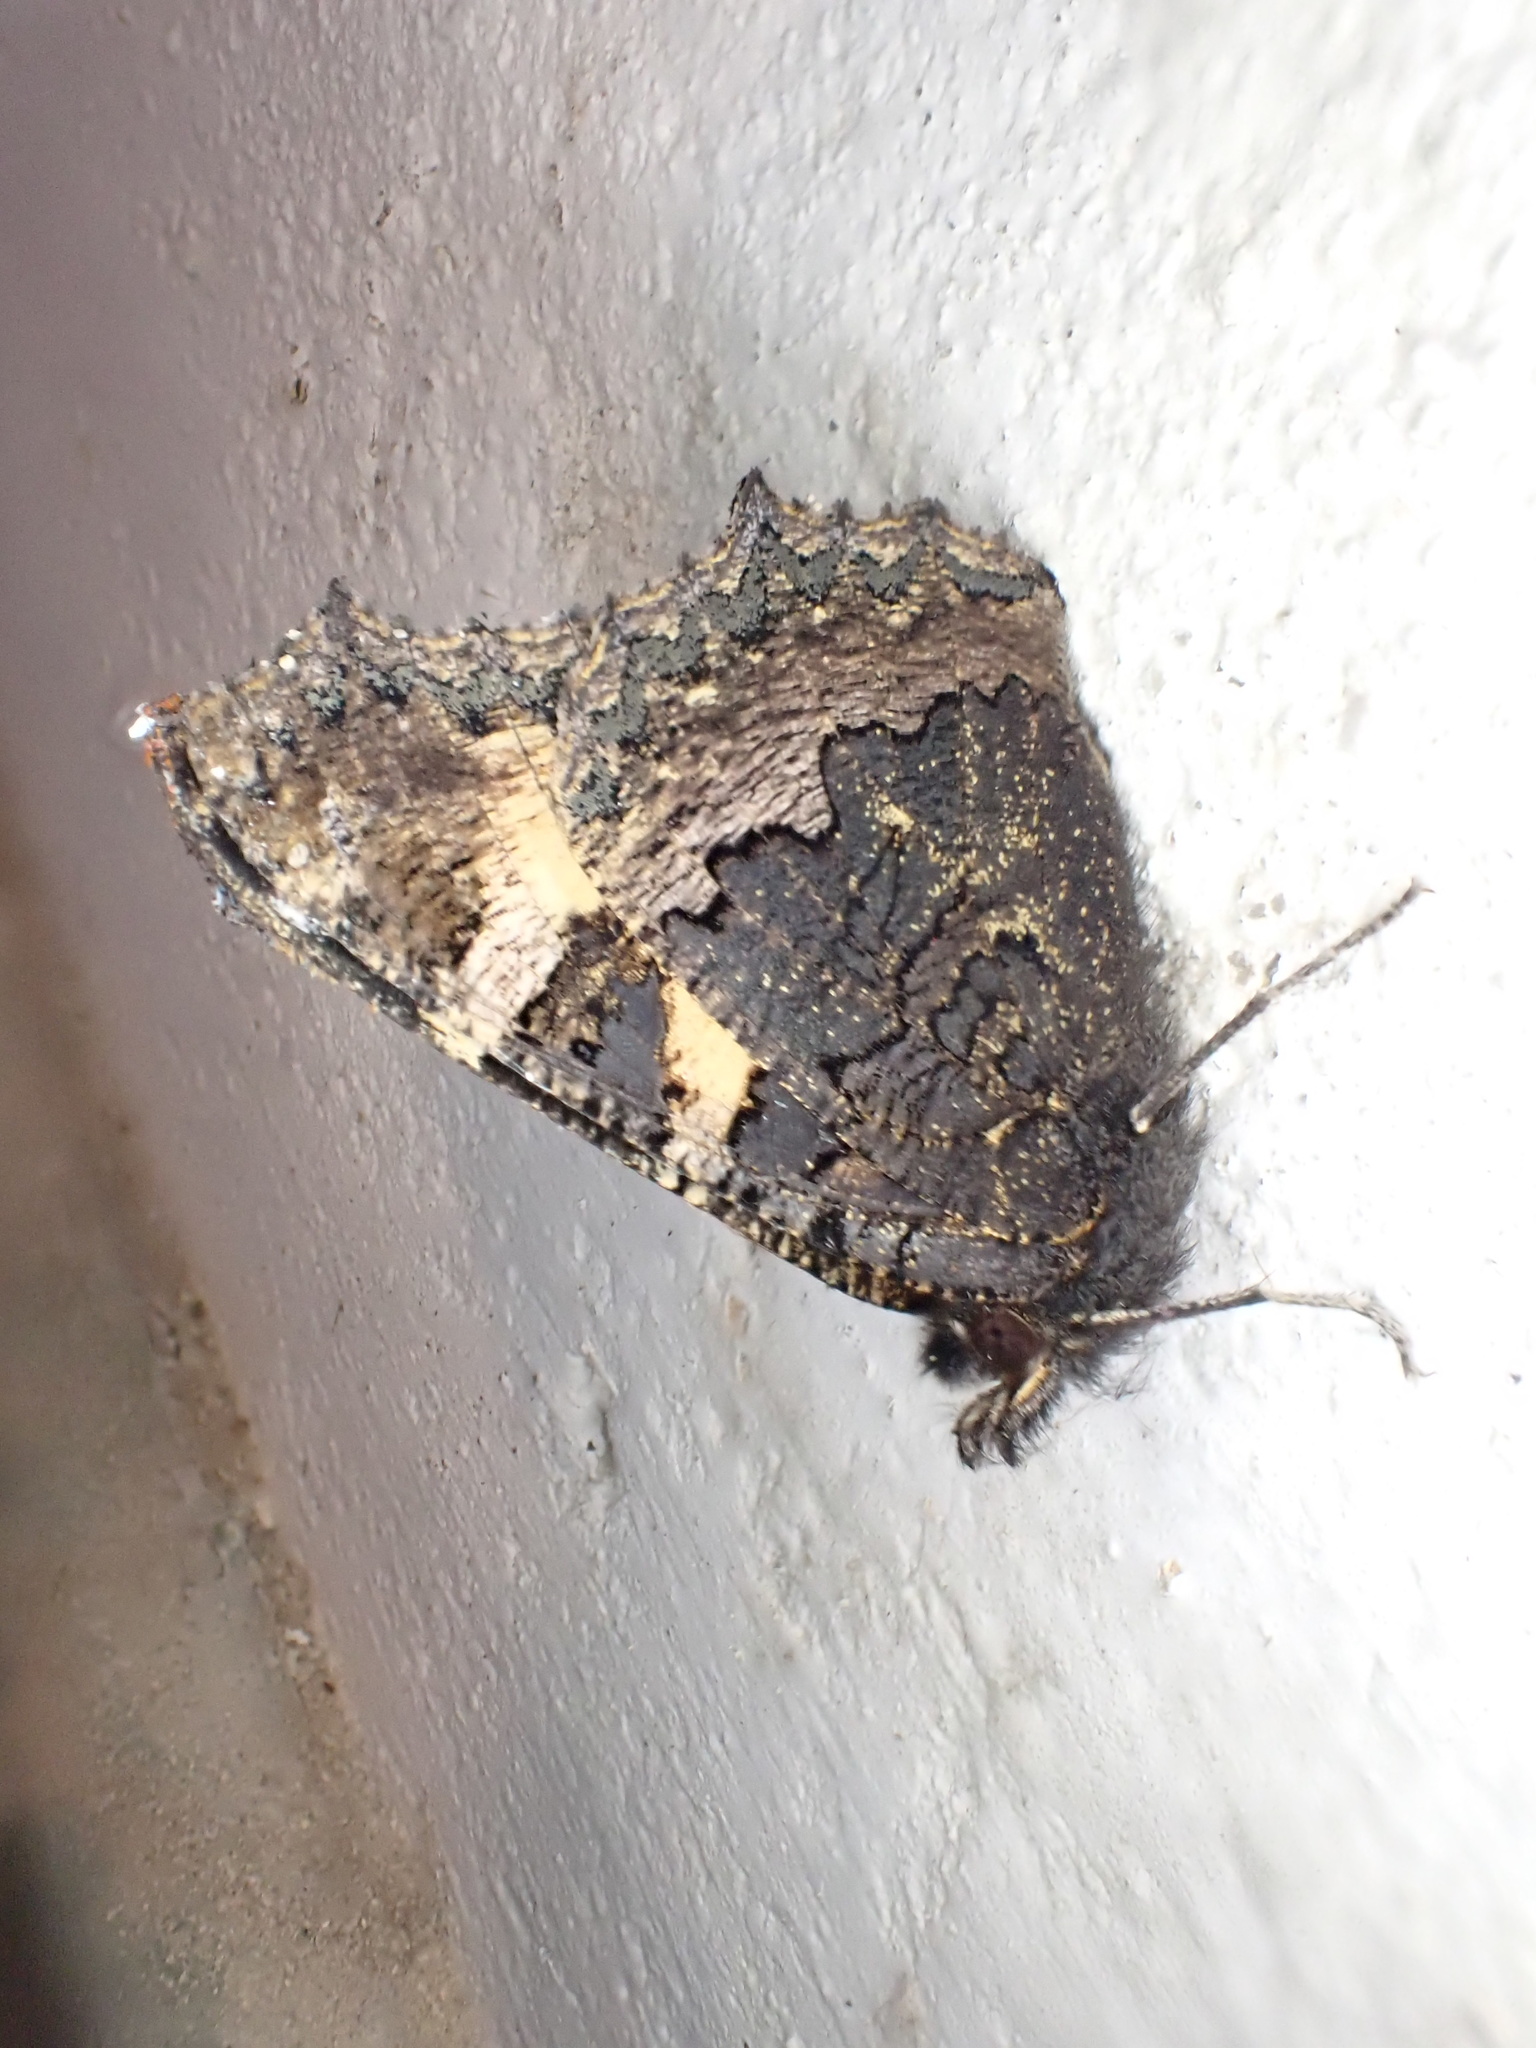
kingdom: Animalia
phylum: Arthropoda
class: Insecta
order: Lepidoptera
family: Nymphalidae
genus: Aglais
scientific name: Aglais urticae
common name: Small tortoiseshell
